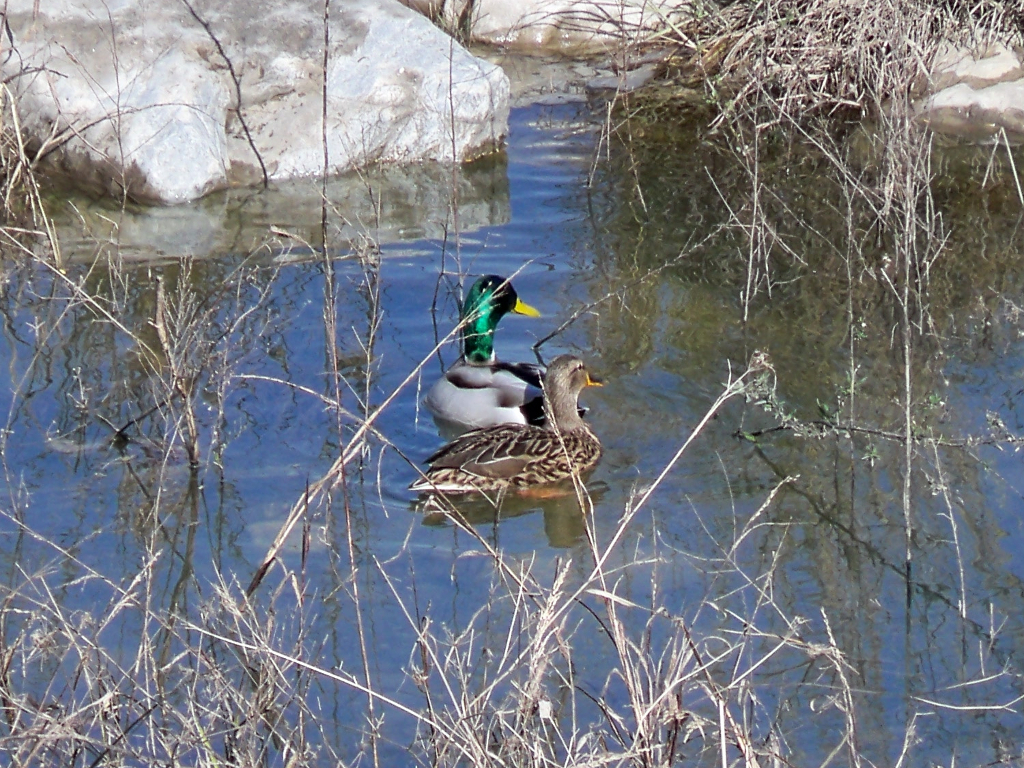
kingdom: Animalia
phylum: Chordata
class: Aves
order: Anseriformes
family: Anatidae
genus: Anas
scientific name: Anas platyrhynchos
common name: Mallard
